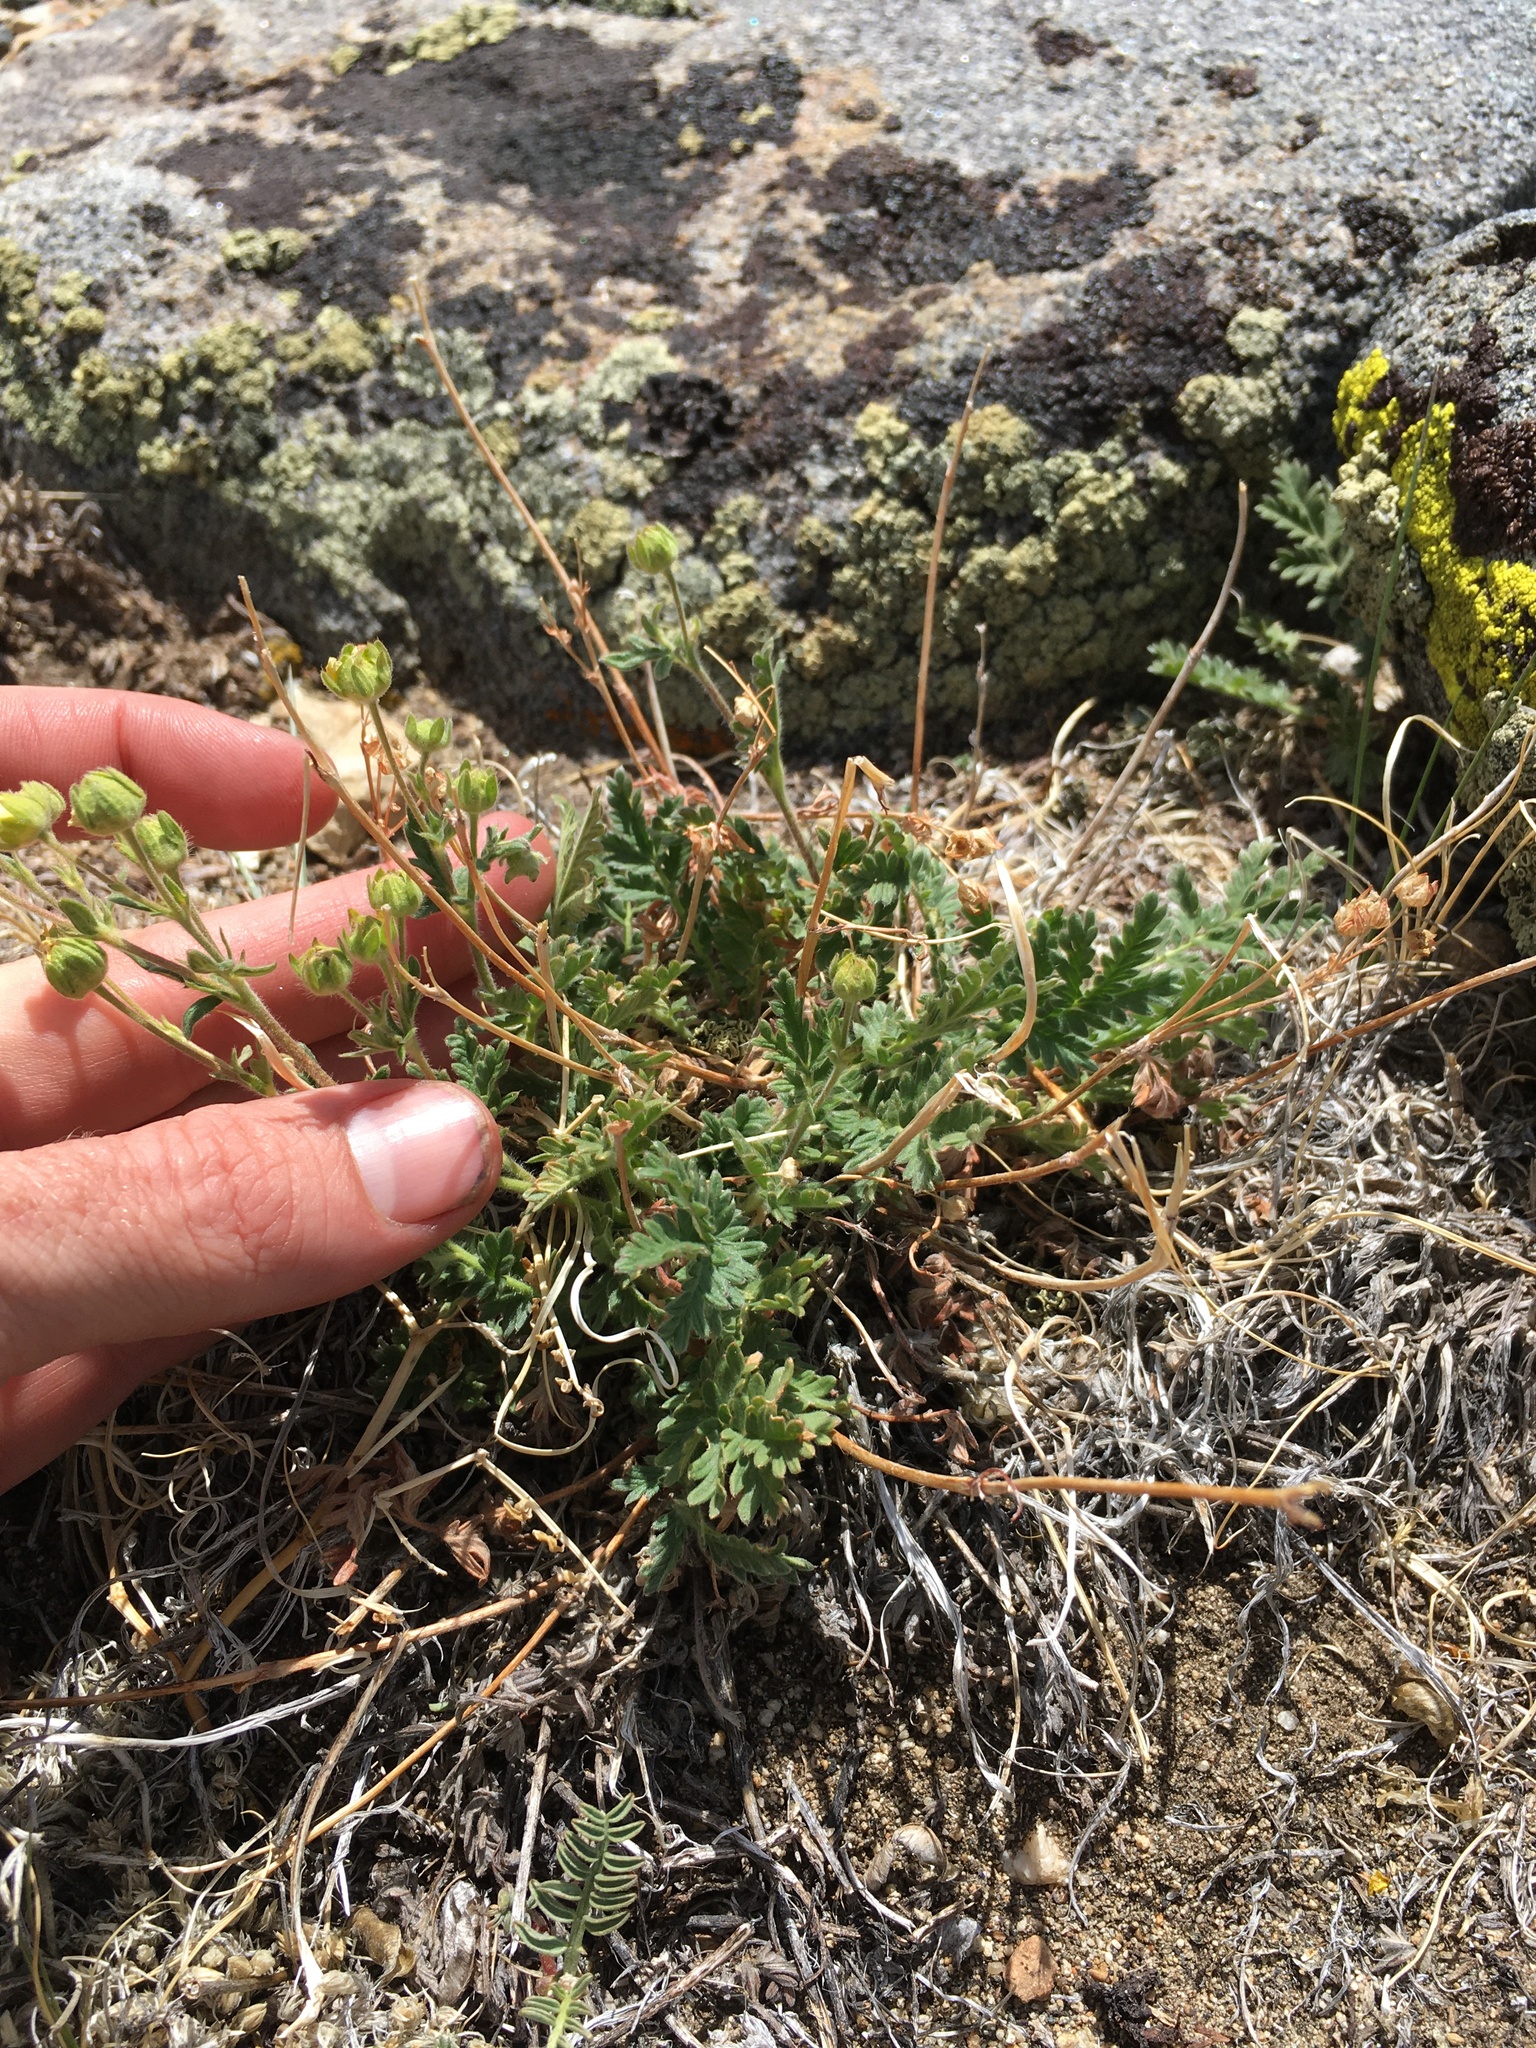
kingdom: Plantae
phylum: Tracheophyta
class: Magnoliopsida
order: Rosales
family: Rosaceae
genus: Potentilla
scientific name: Potentilla pensylvanica
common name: Pennsylvania cinquefoil
